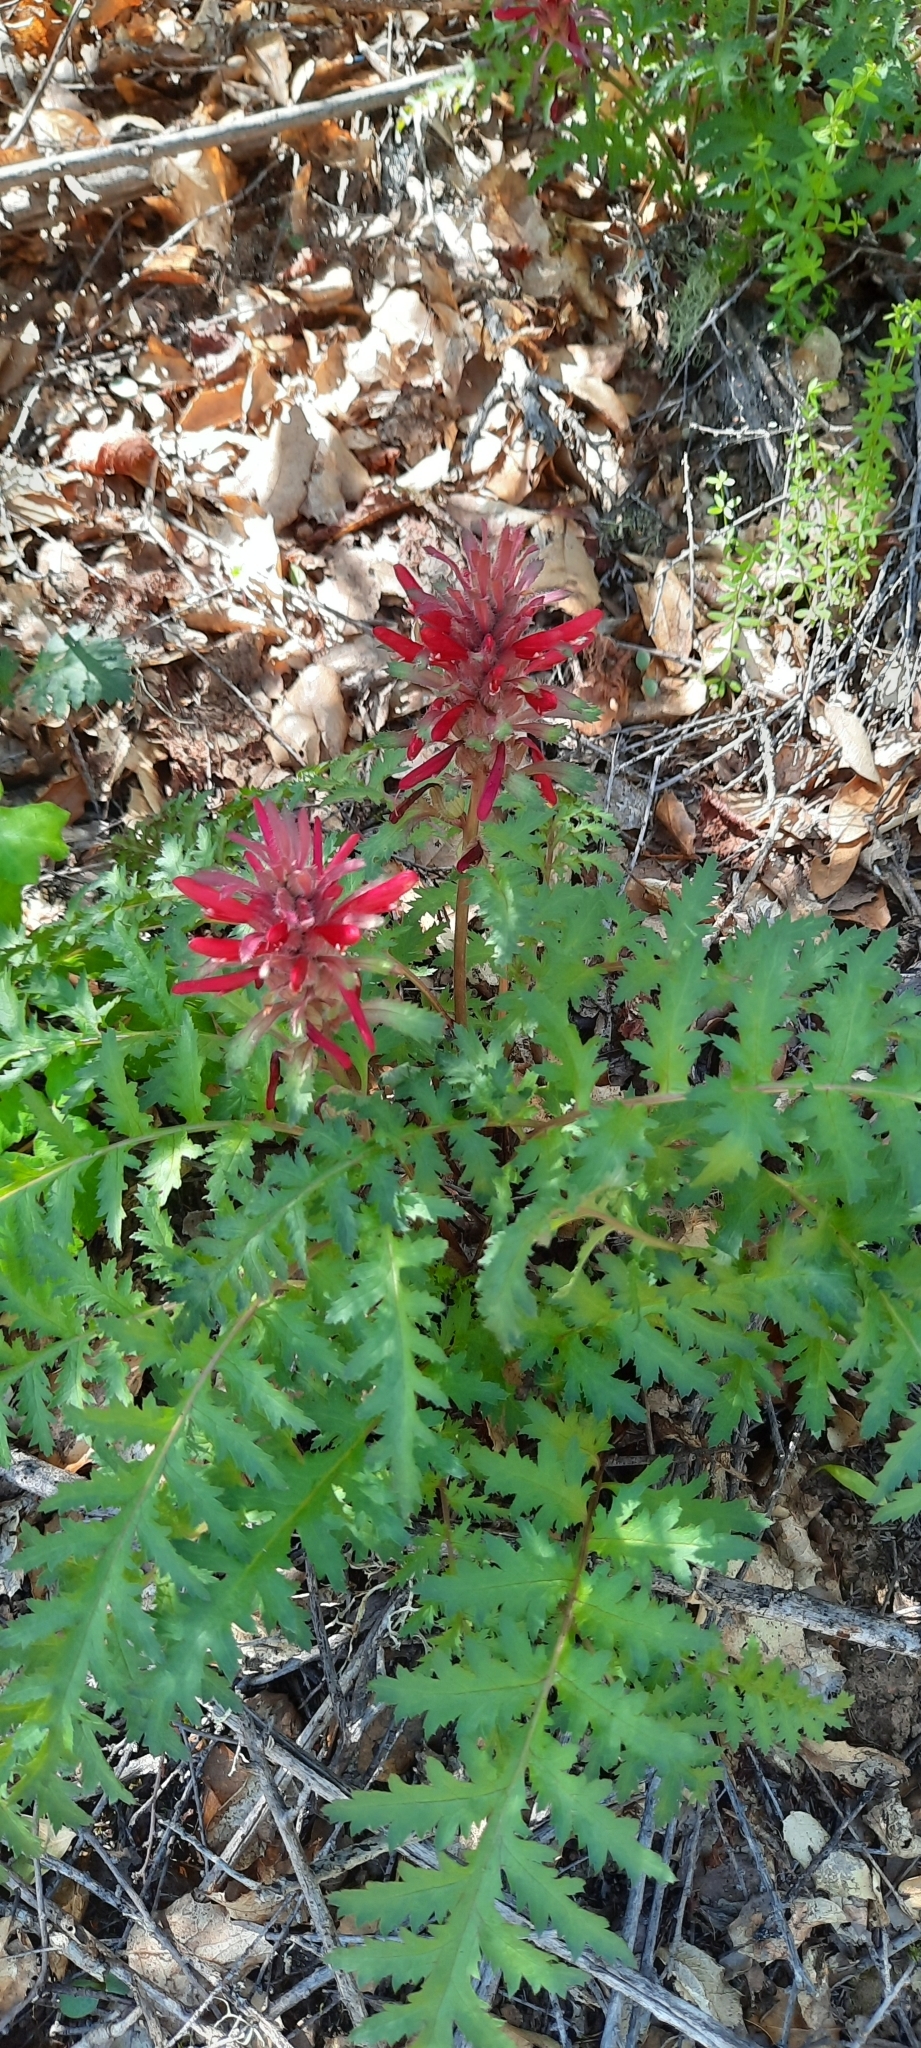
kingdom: Plantae
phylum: Tracheophyta
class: Magnoliopsida
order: Lamiales
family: Orobanchaceae
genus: Pedicularis
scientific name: Pedicularis densiflora
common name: Indian warrior
